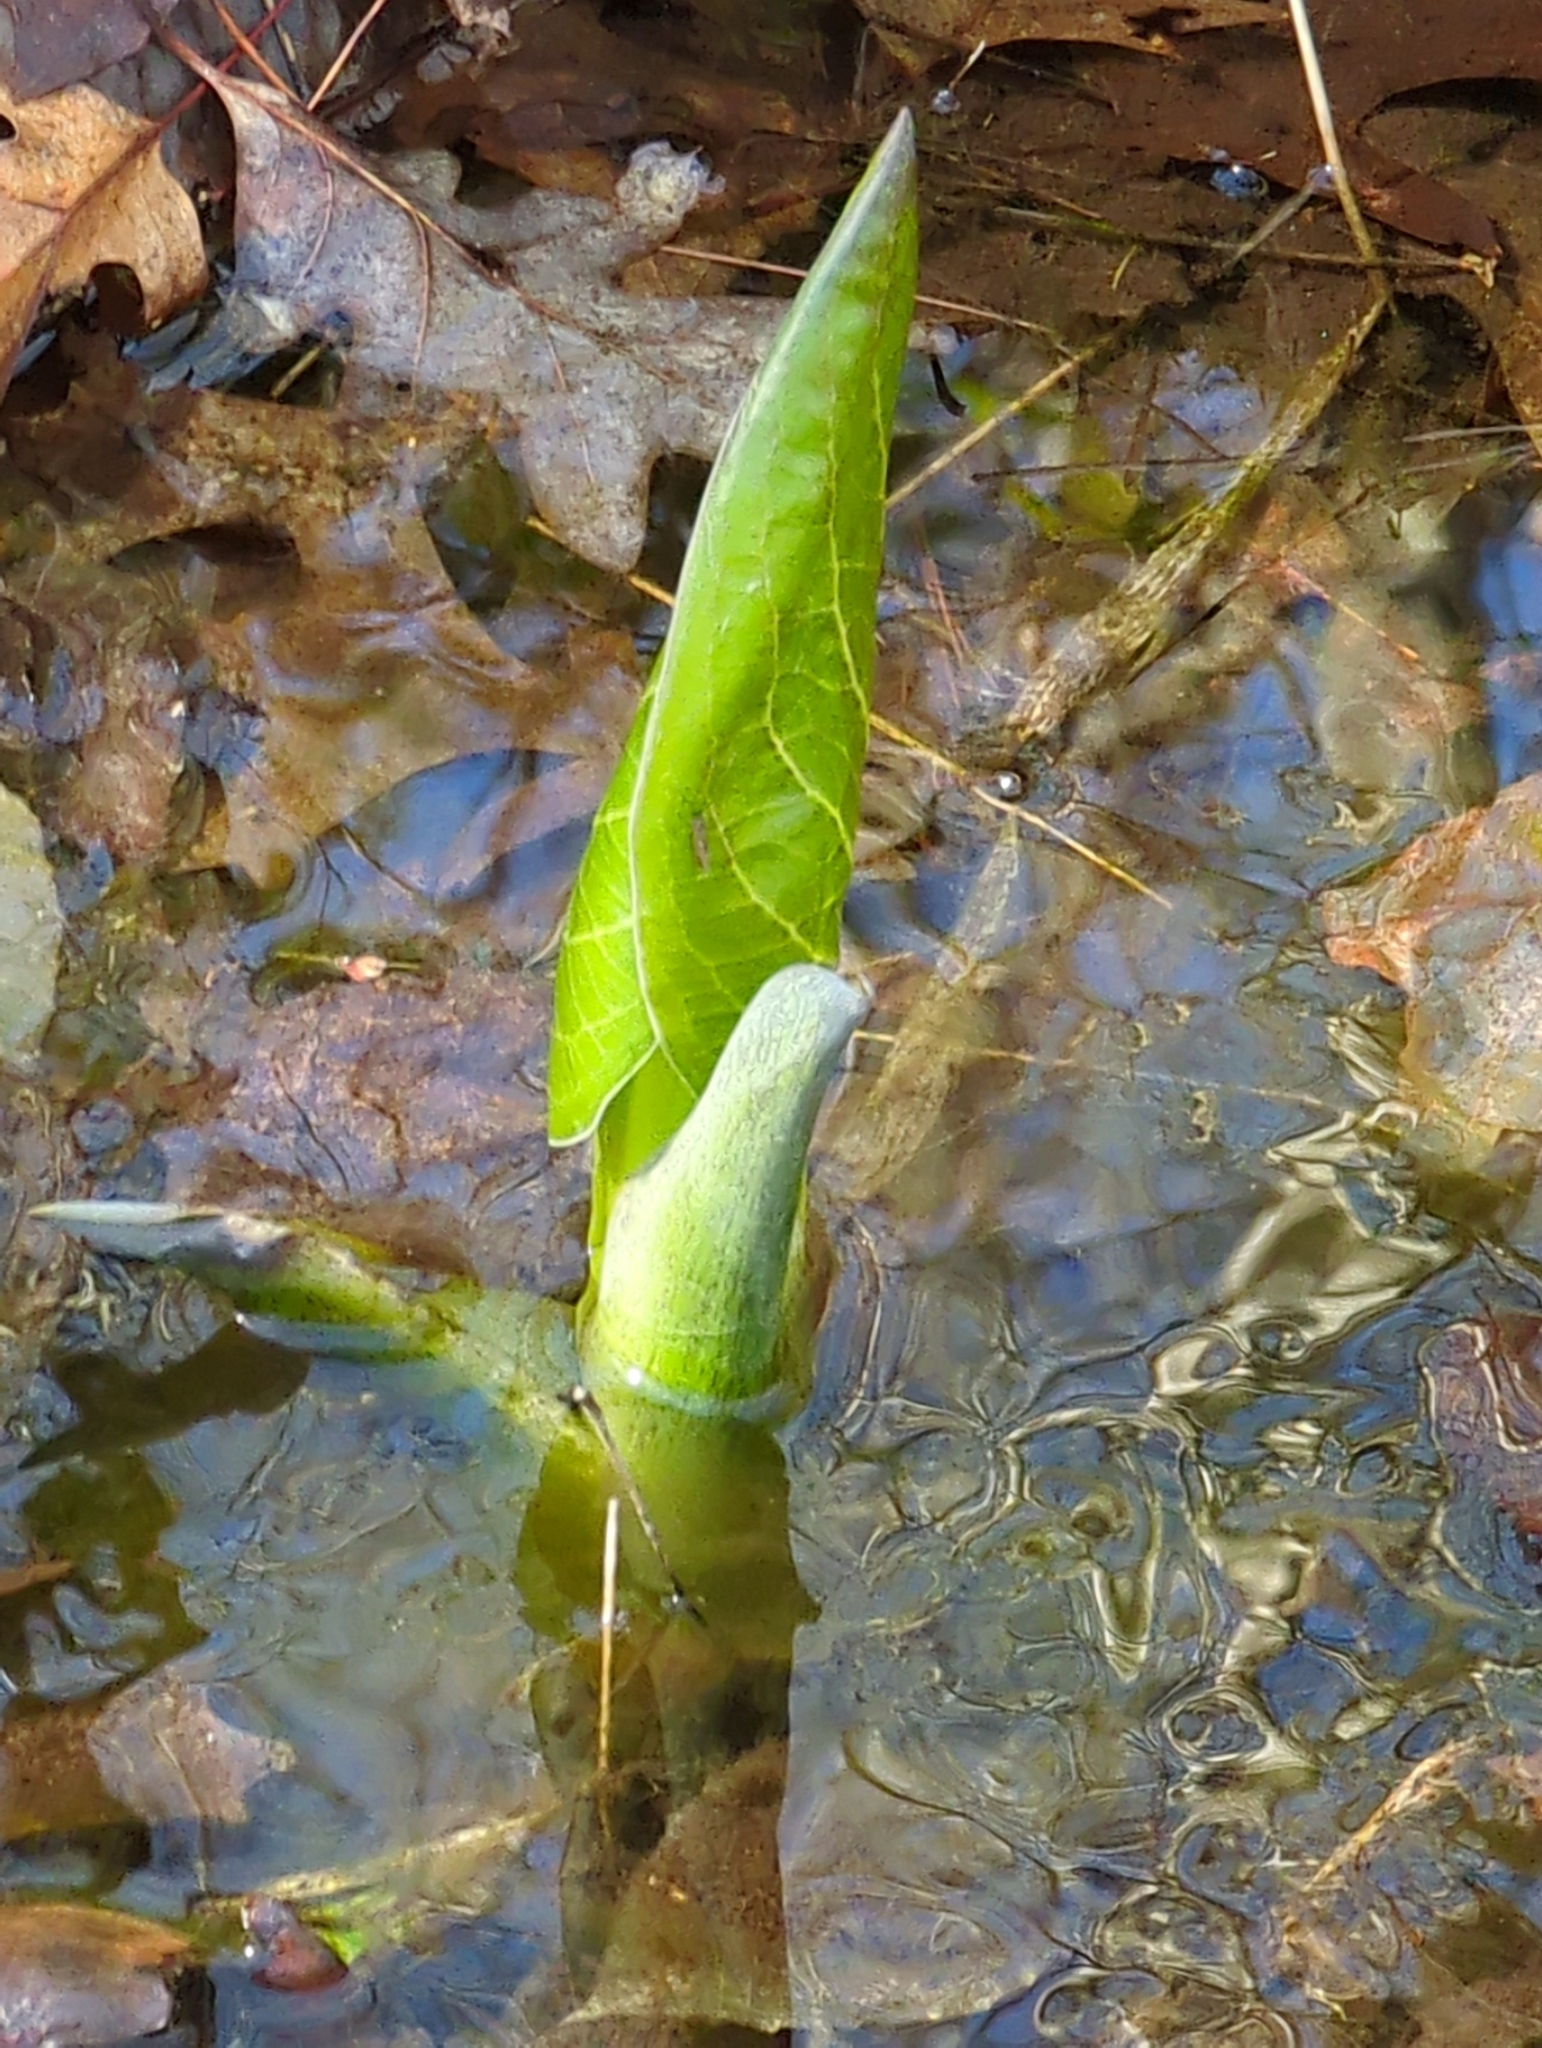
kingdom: Plantae
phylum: Tracheophyta
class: Liliopsida
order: Alismatales
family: Araceae
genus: Symplocarpus
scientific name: Symplocarpus foetidus
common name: Eastern skunk cabbage
